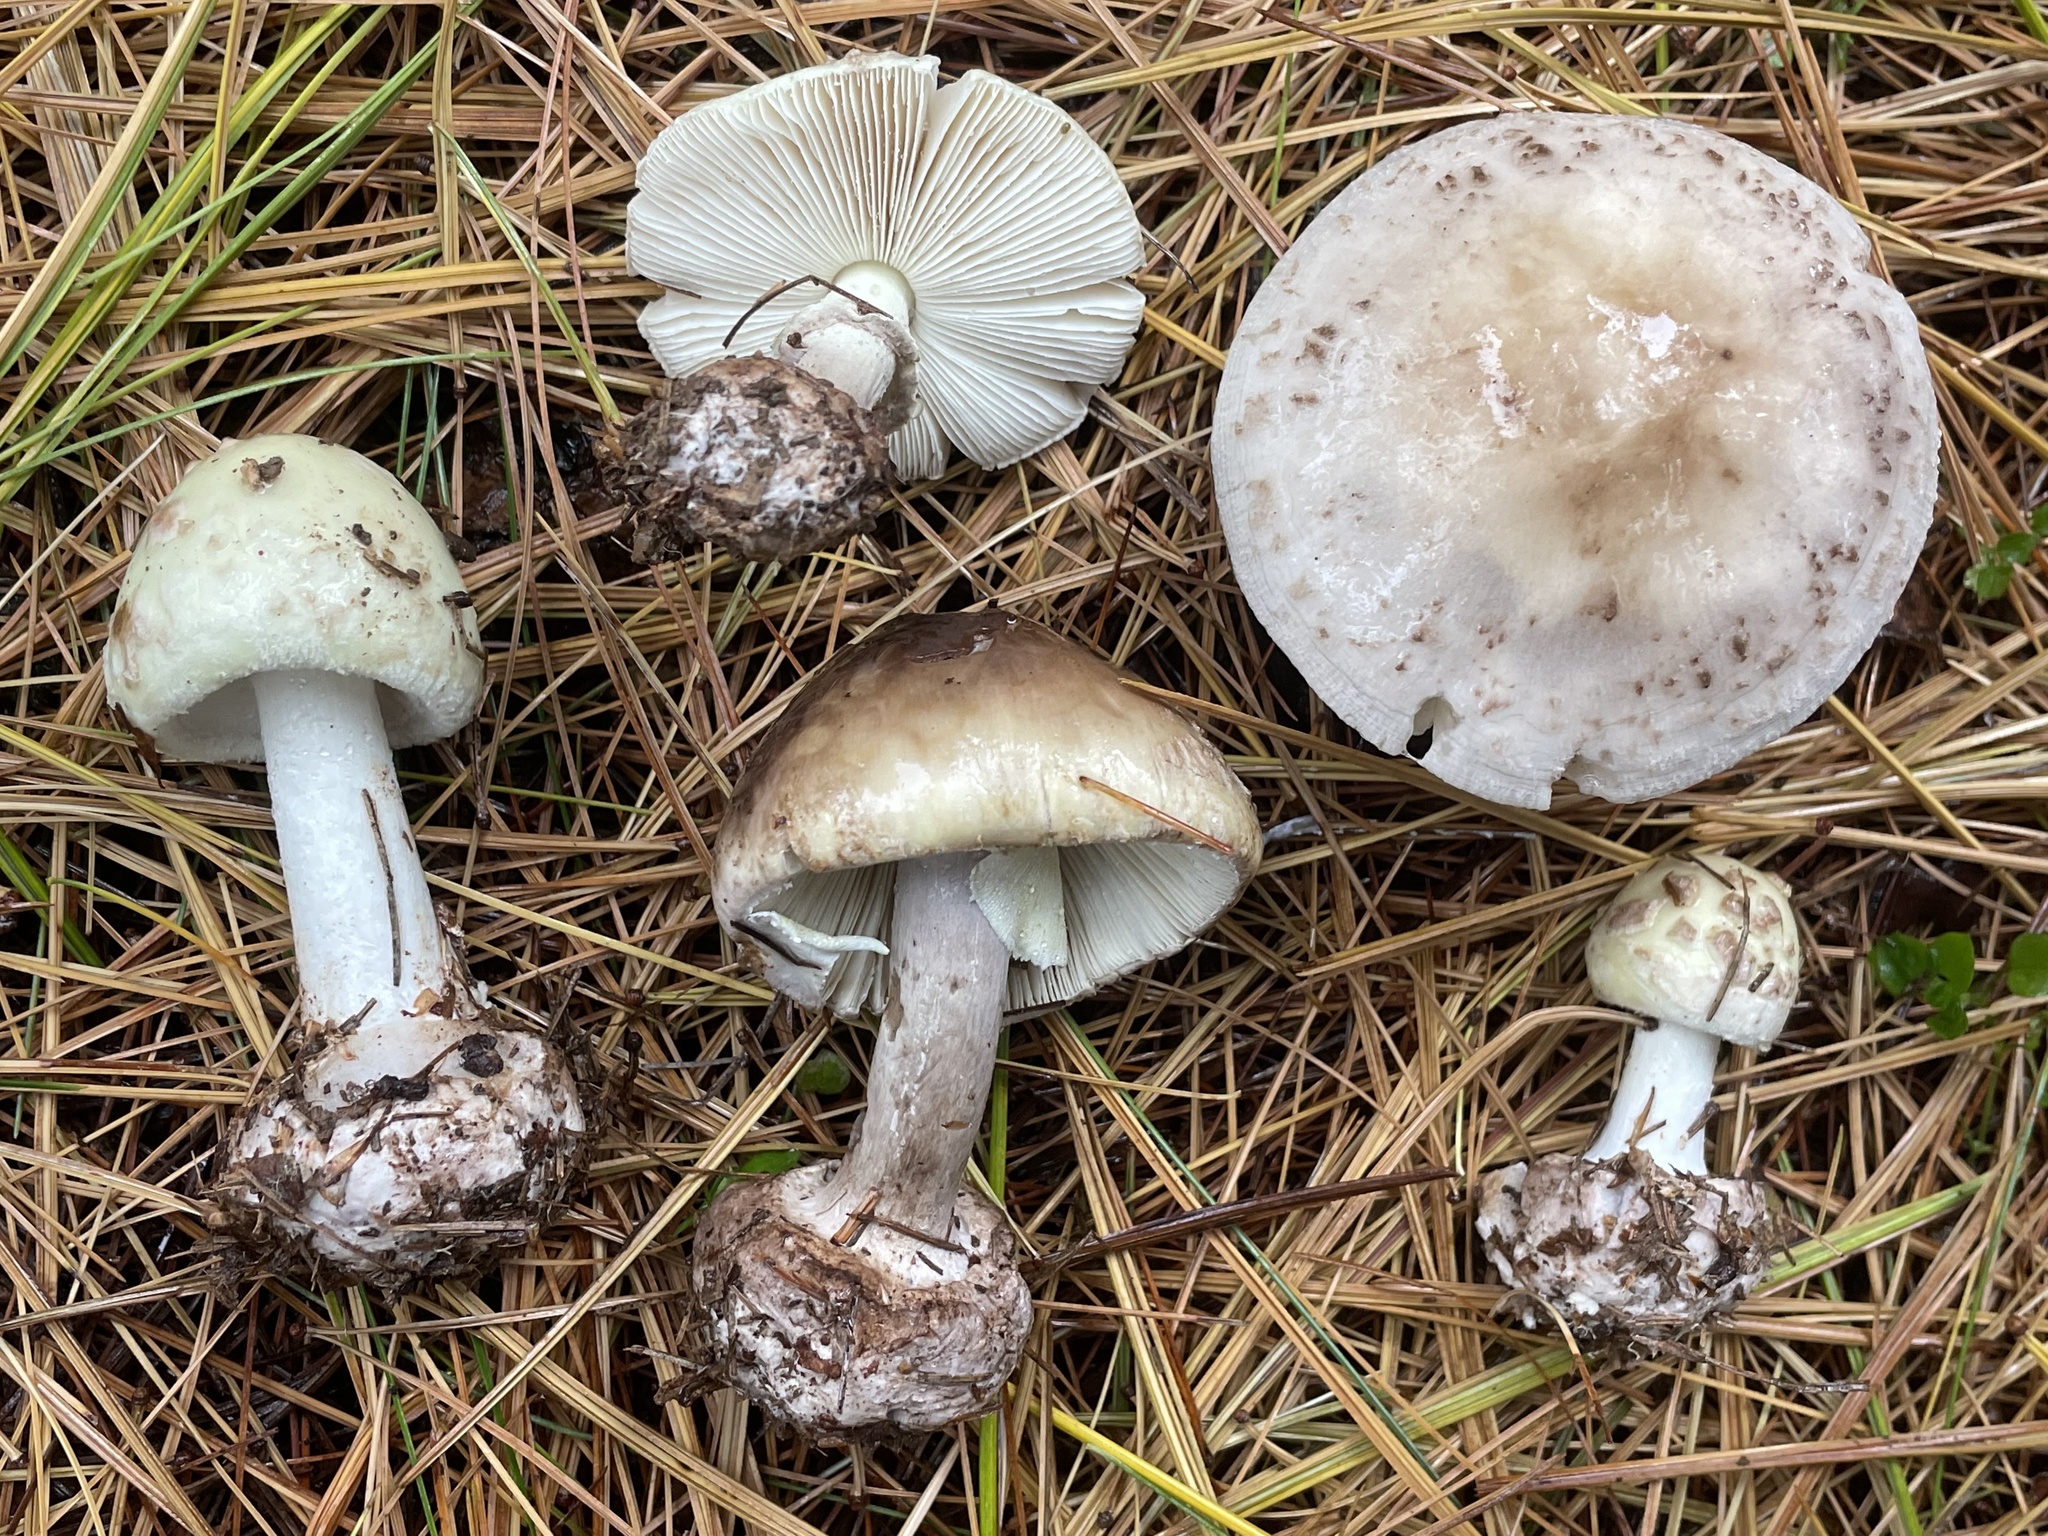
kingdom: Fungi
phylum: Basidiomycota
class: Agaricomycetes
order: Agaricales
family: Amanitaceae
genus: Amanita
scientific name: Amanita lavendula
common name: Coker's lavender staining amanita
